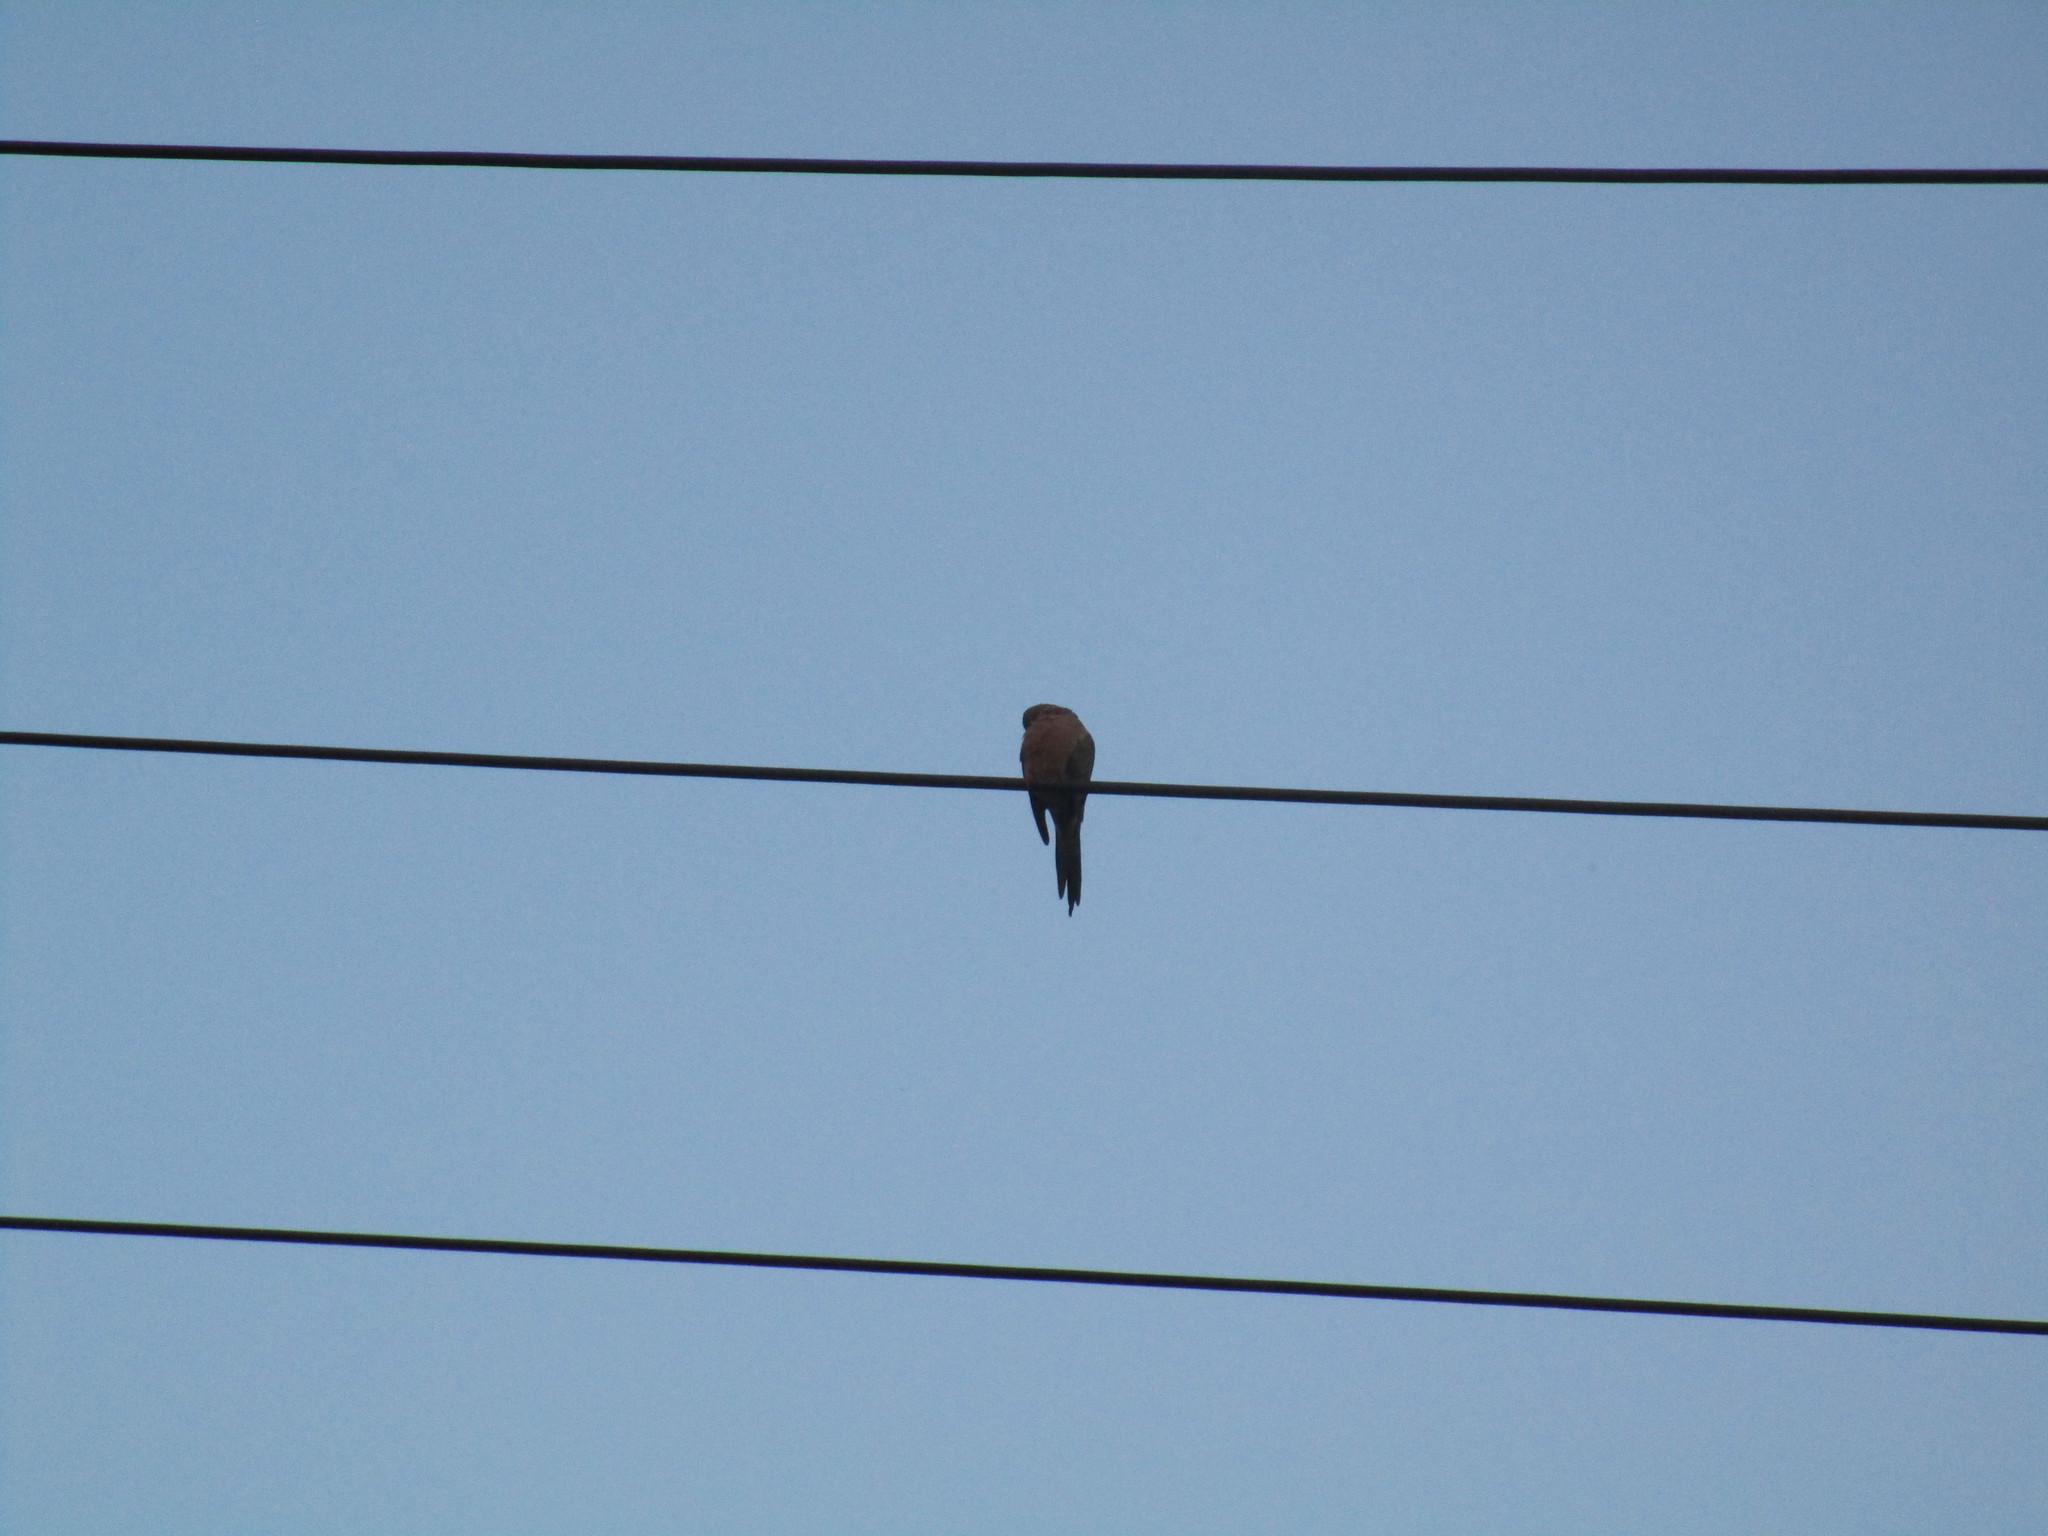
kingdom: Animalia
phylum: Chordata
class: Aves
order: Columbiformes
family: Columbidae
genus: Zenaida
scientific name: Zenaida macroura
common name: Mourning dove
